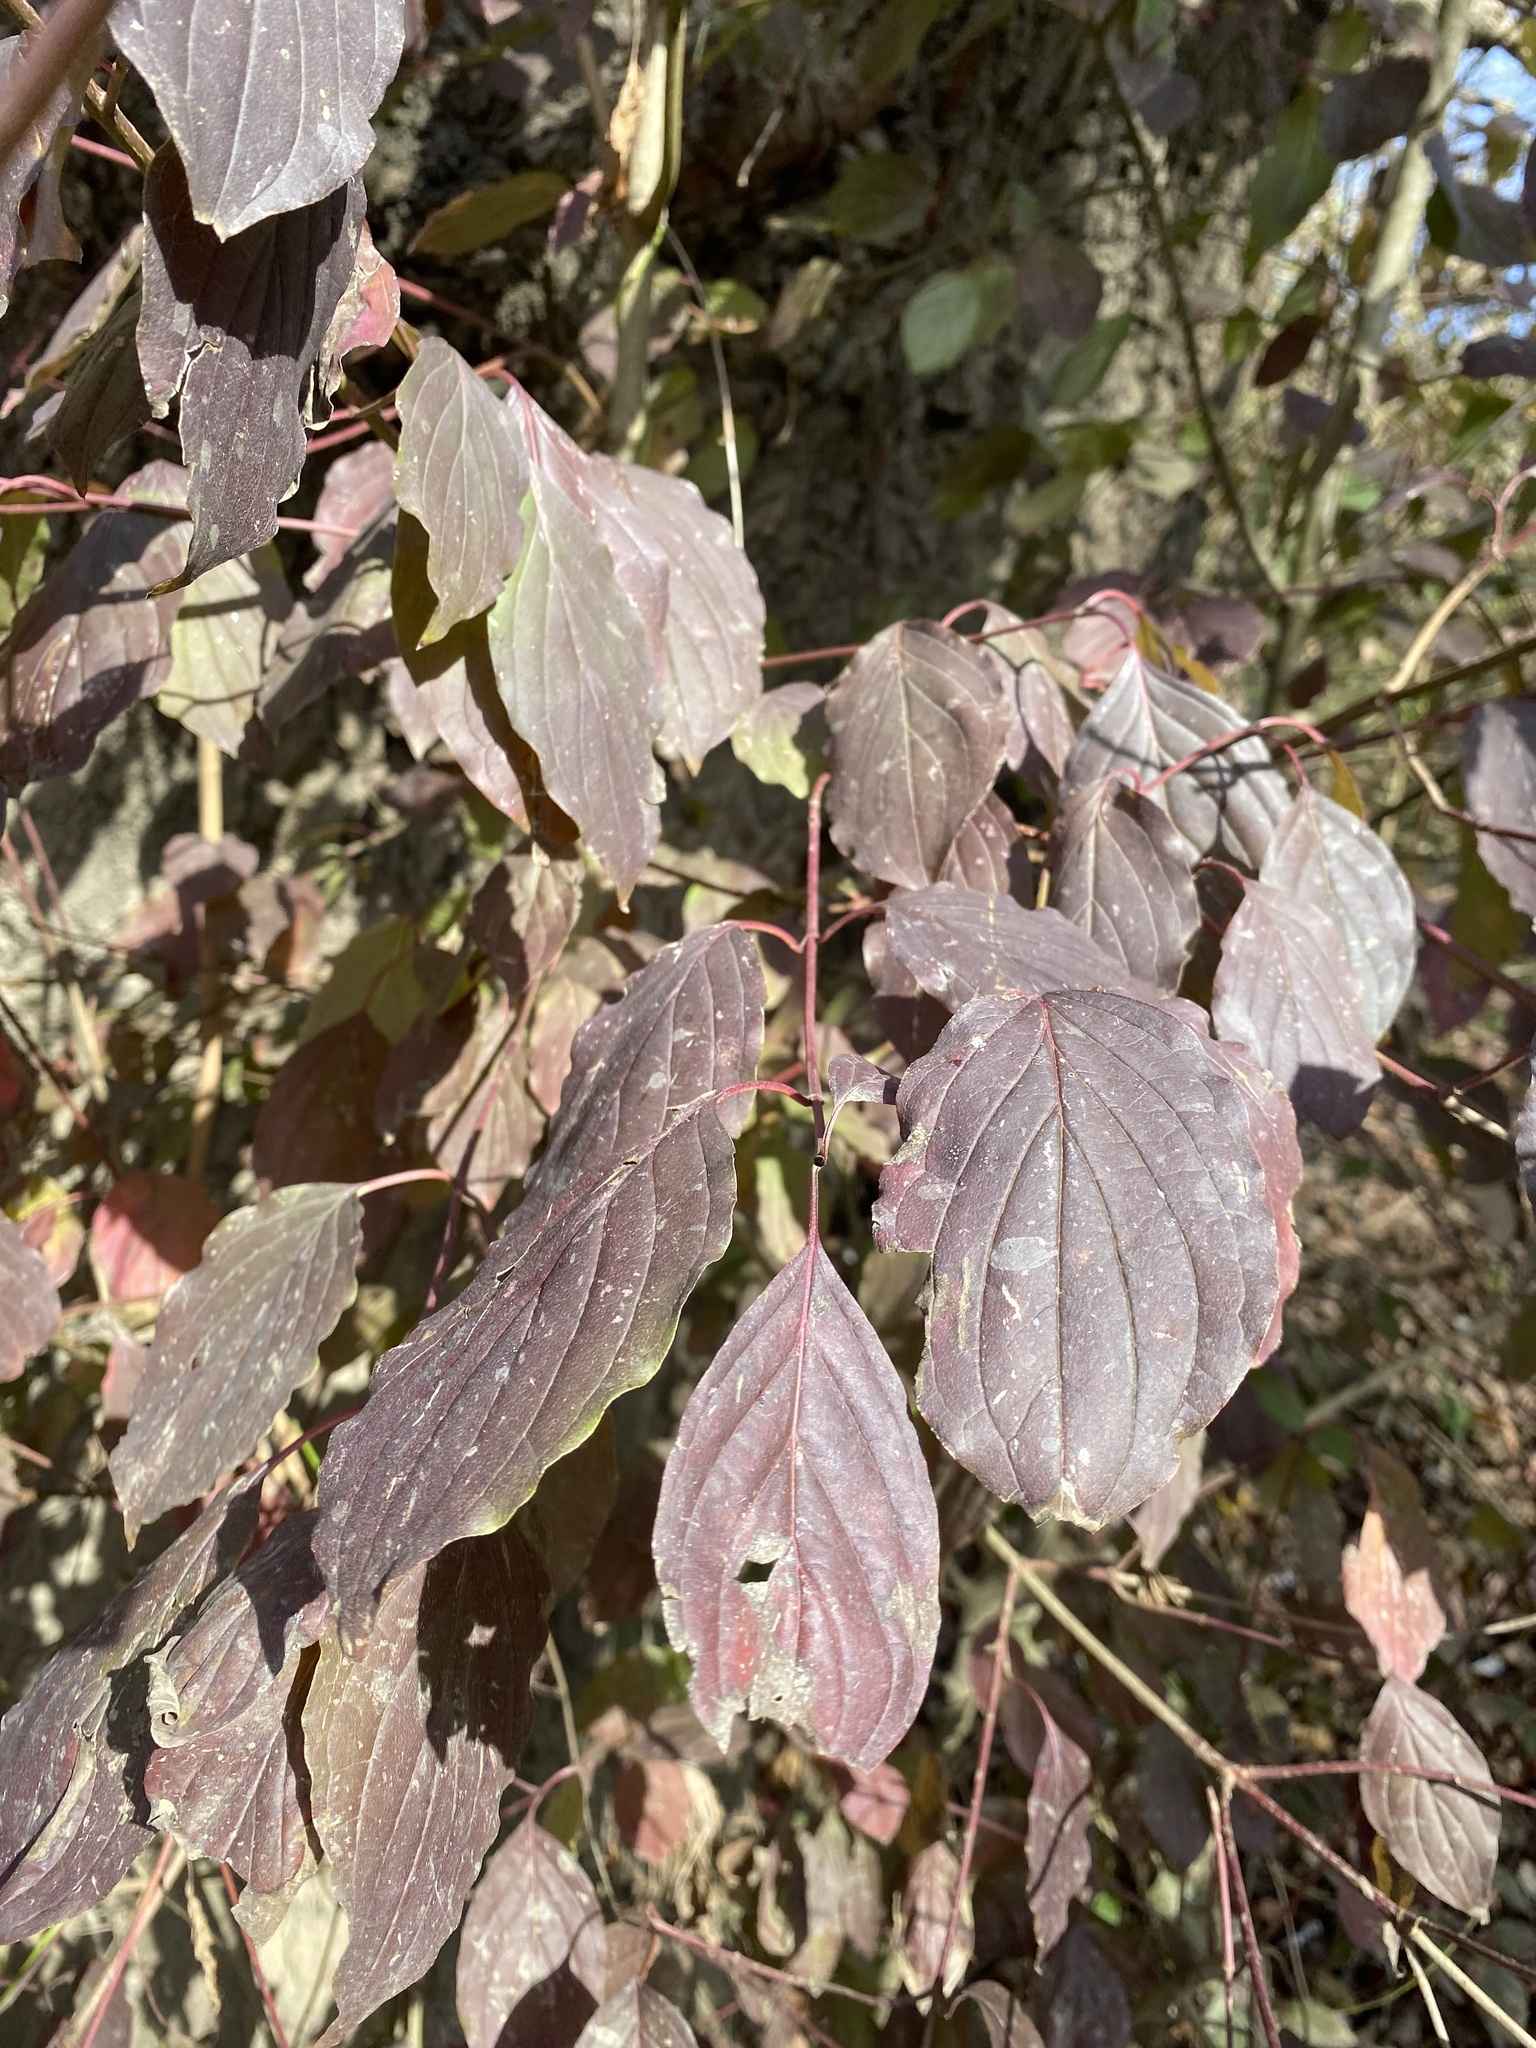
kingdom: Plantae
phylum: Tracheophyta
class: Magnoliopsida
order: Cornales
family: Cornaceae
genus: Cornus
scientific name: Cornus sanguinea
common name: Dogwood
